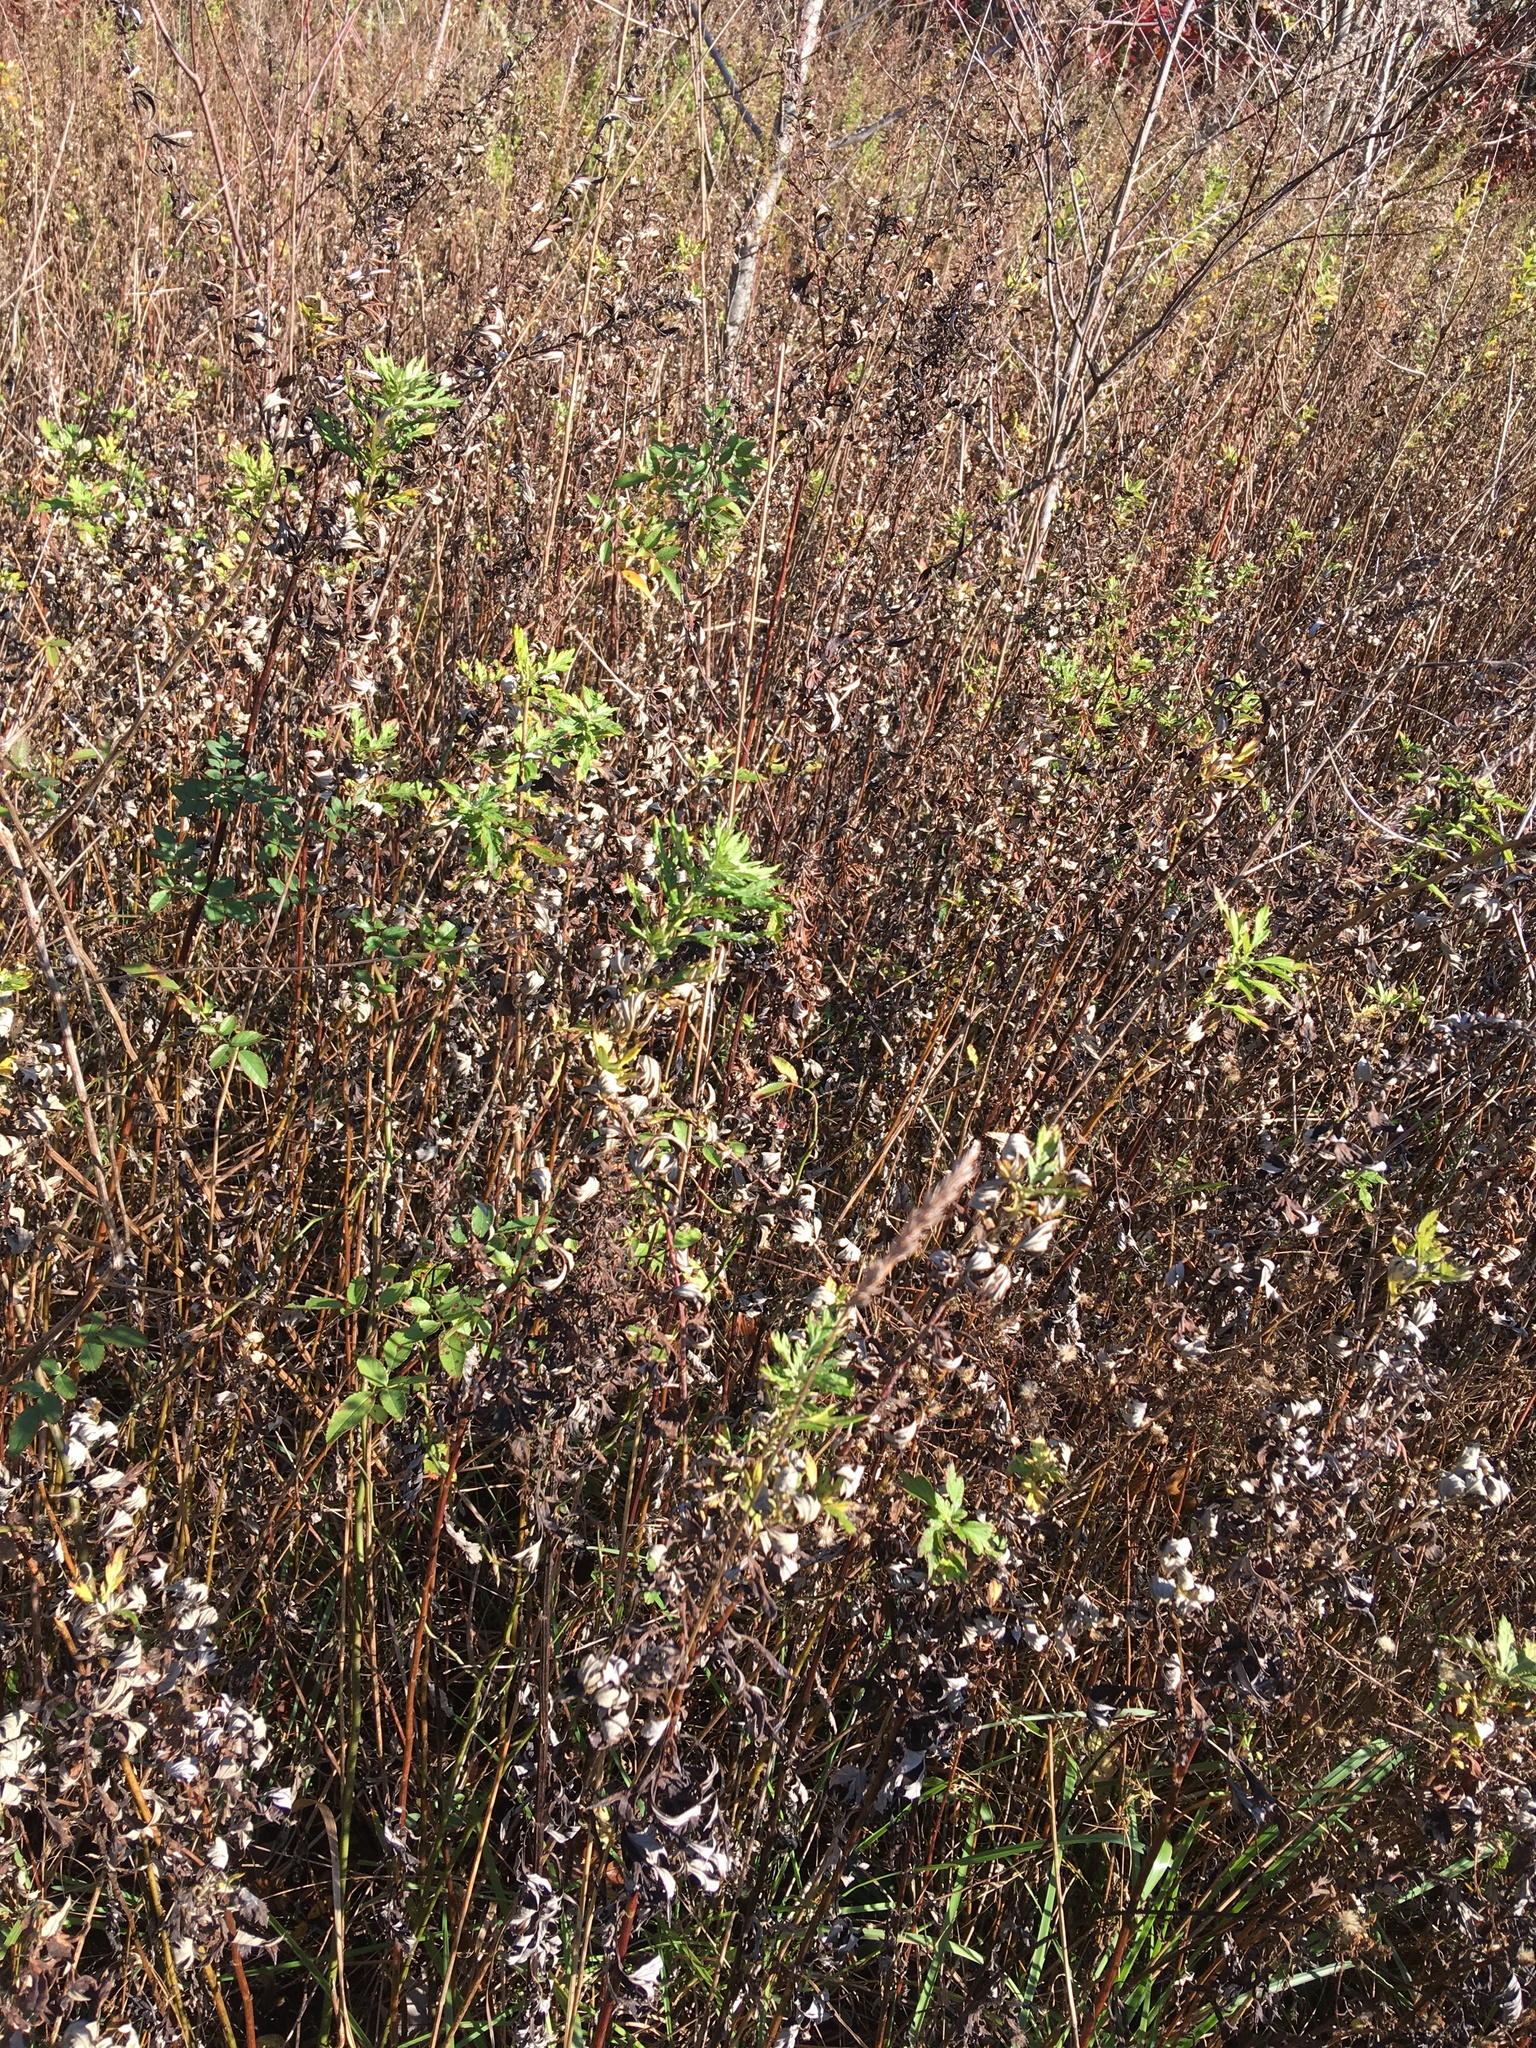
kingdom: Plantae
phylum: Tracheophyta
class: Magnoliopsida
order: Asterales
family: Asteraceae
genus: Artemisia
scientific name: Artemisia vulgaris
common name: Mugwort
